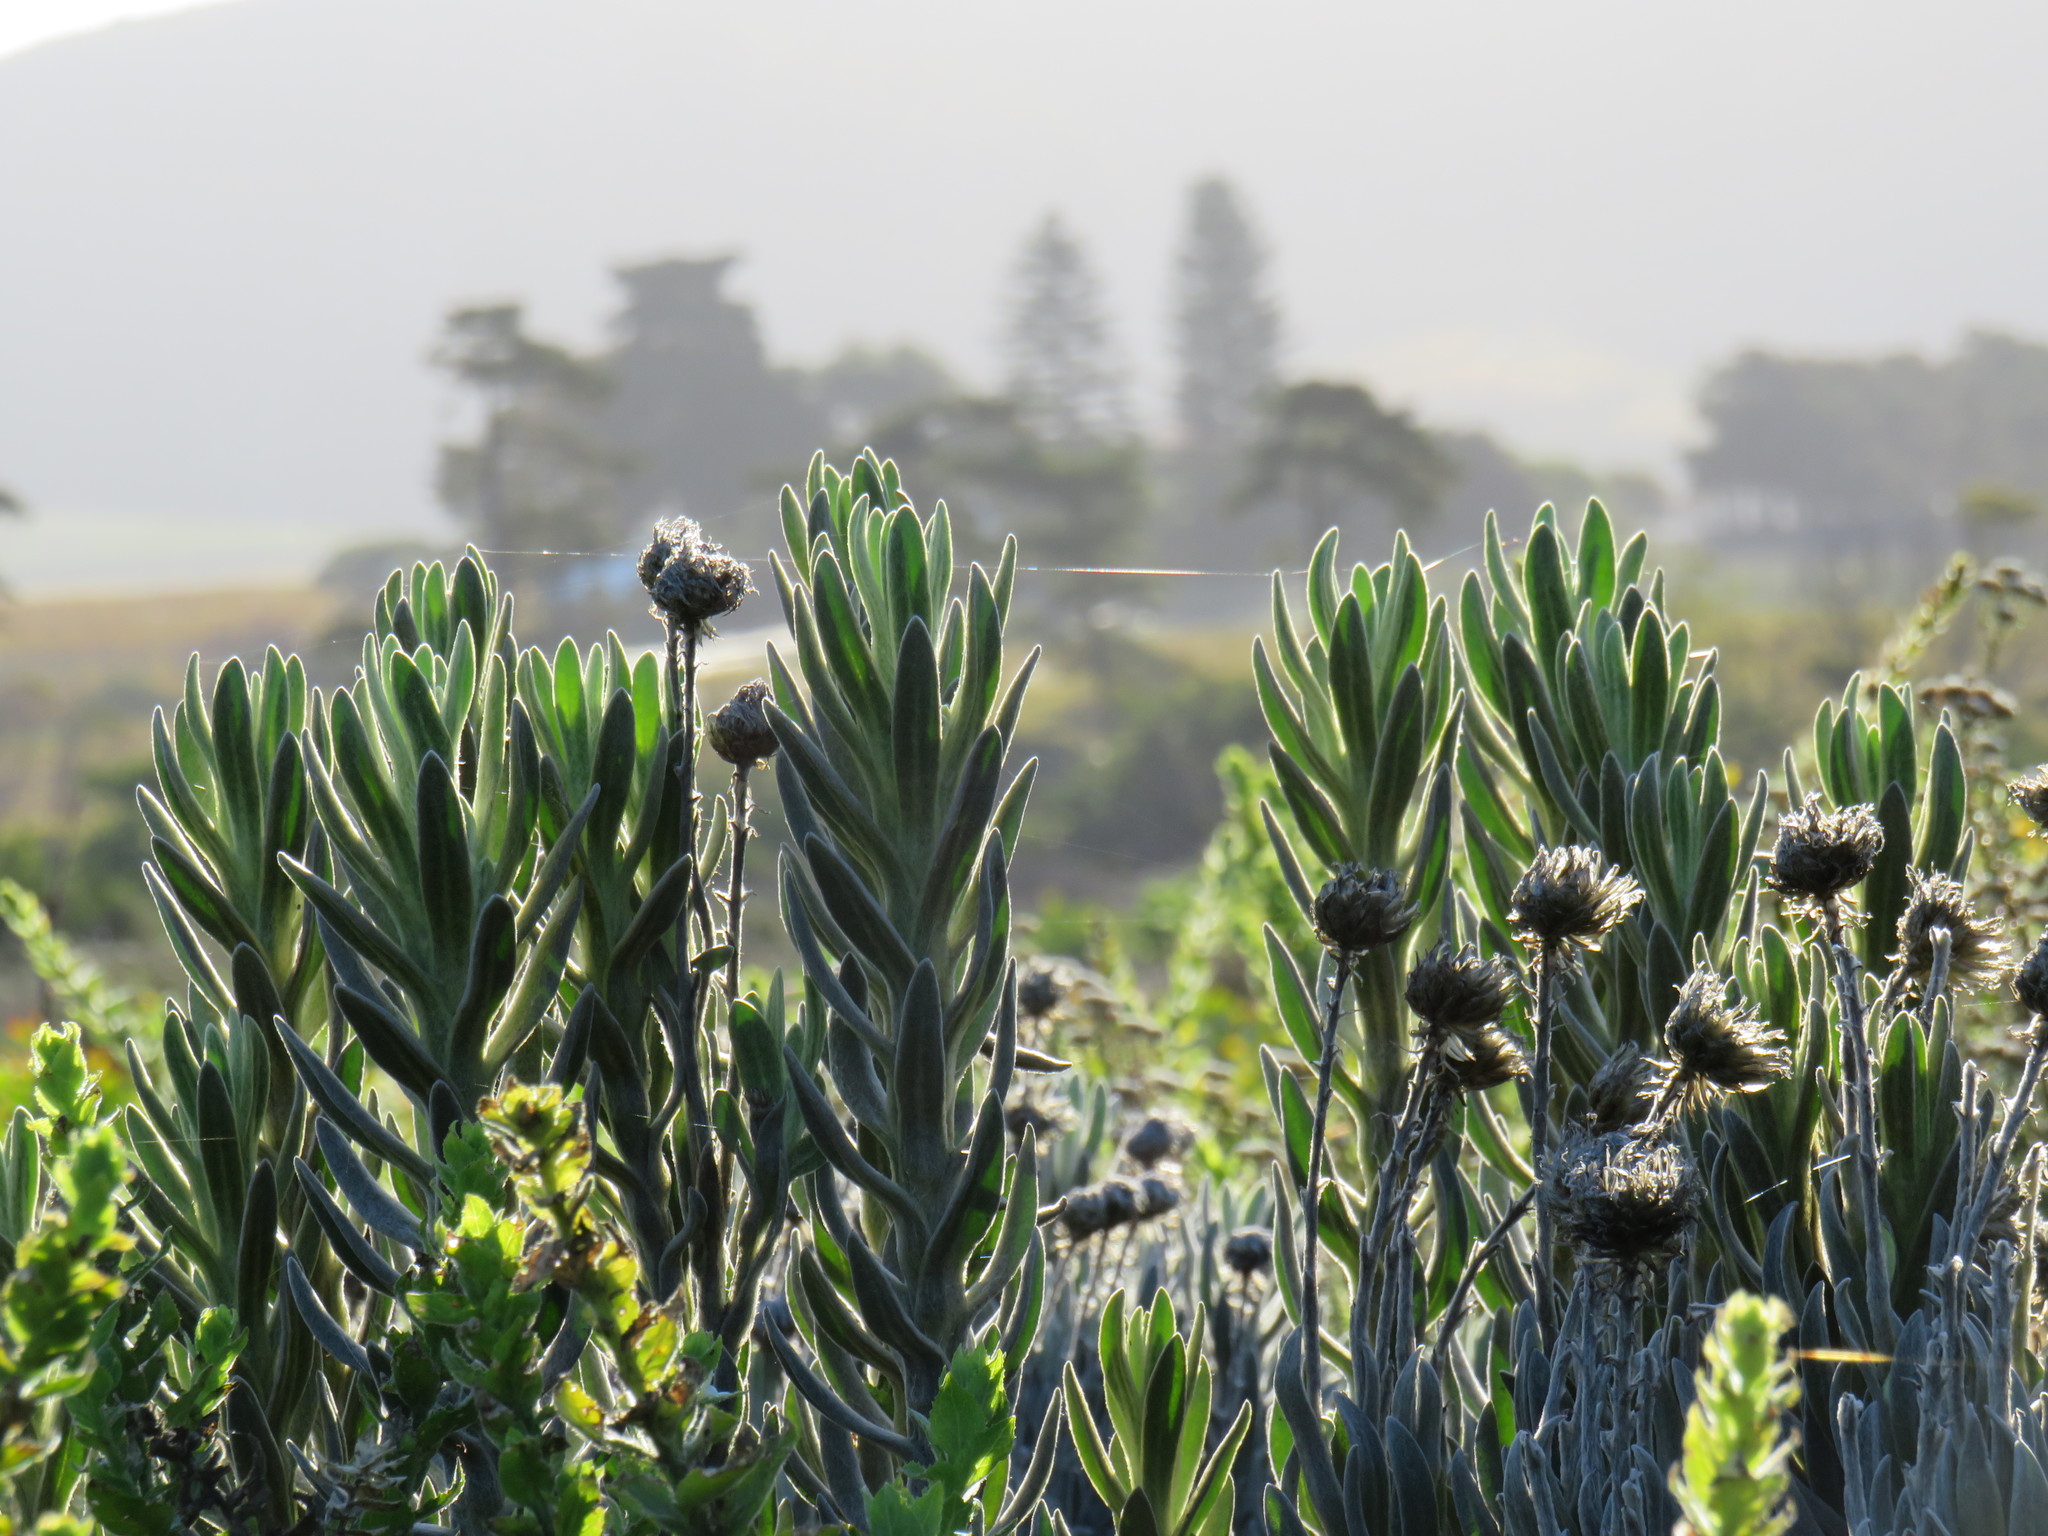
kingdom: Plantae
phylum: Tracheophyta
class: Magnoliopsida
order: Asterales
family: Asteraceae
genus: Syncarpha
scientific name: Syncarpha vestita
